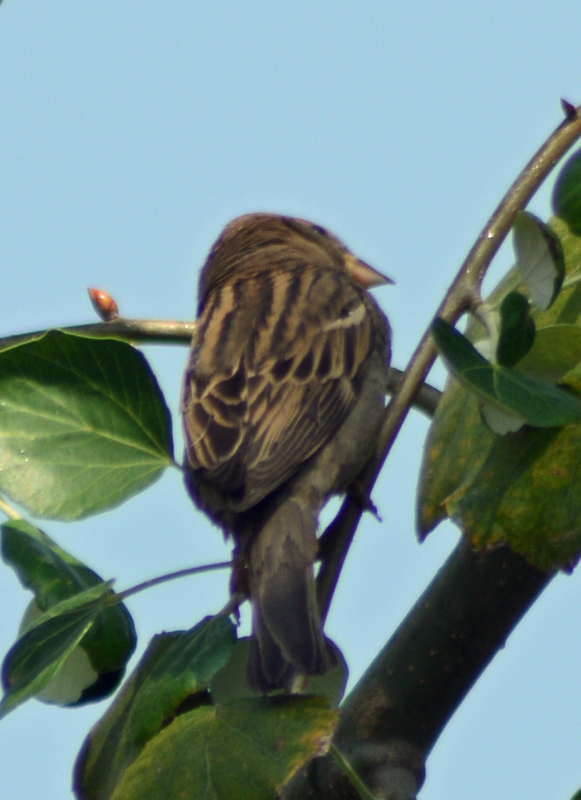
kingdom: Animalia
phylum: Chordata
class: Aves
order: Passeriformes
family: Passeridae
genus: Passer
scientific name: Passer domesticus
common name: House sparrow
